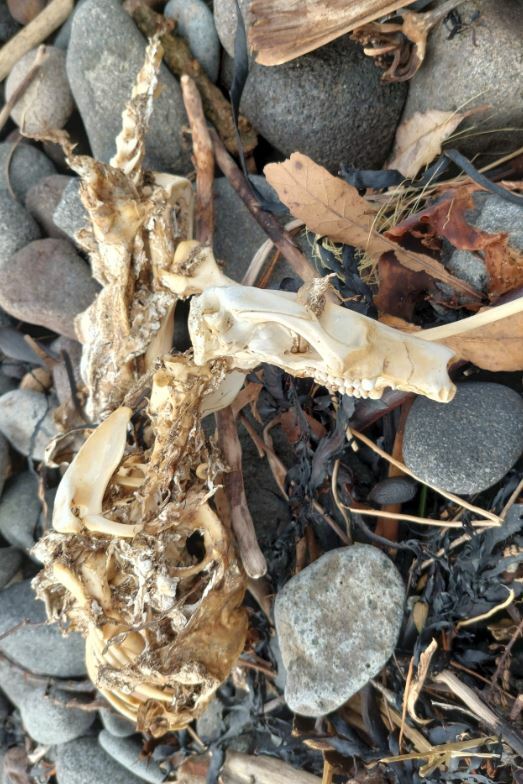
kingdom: Animalia
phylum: Chordata
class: Mammalia
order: Diprotodontia
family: Phalangeridae
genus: Trichosurus
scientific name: Trichosurus vulpecula
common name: Common brushtail
